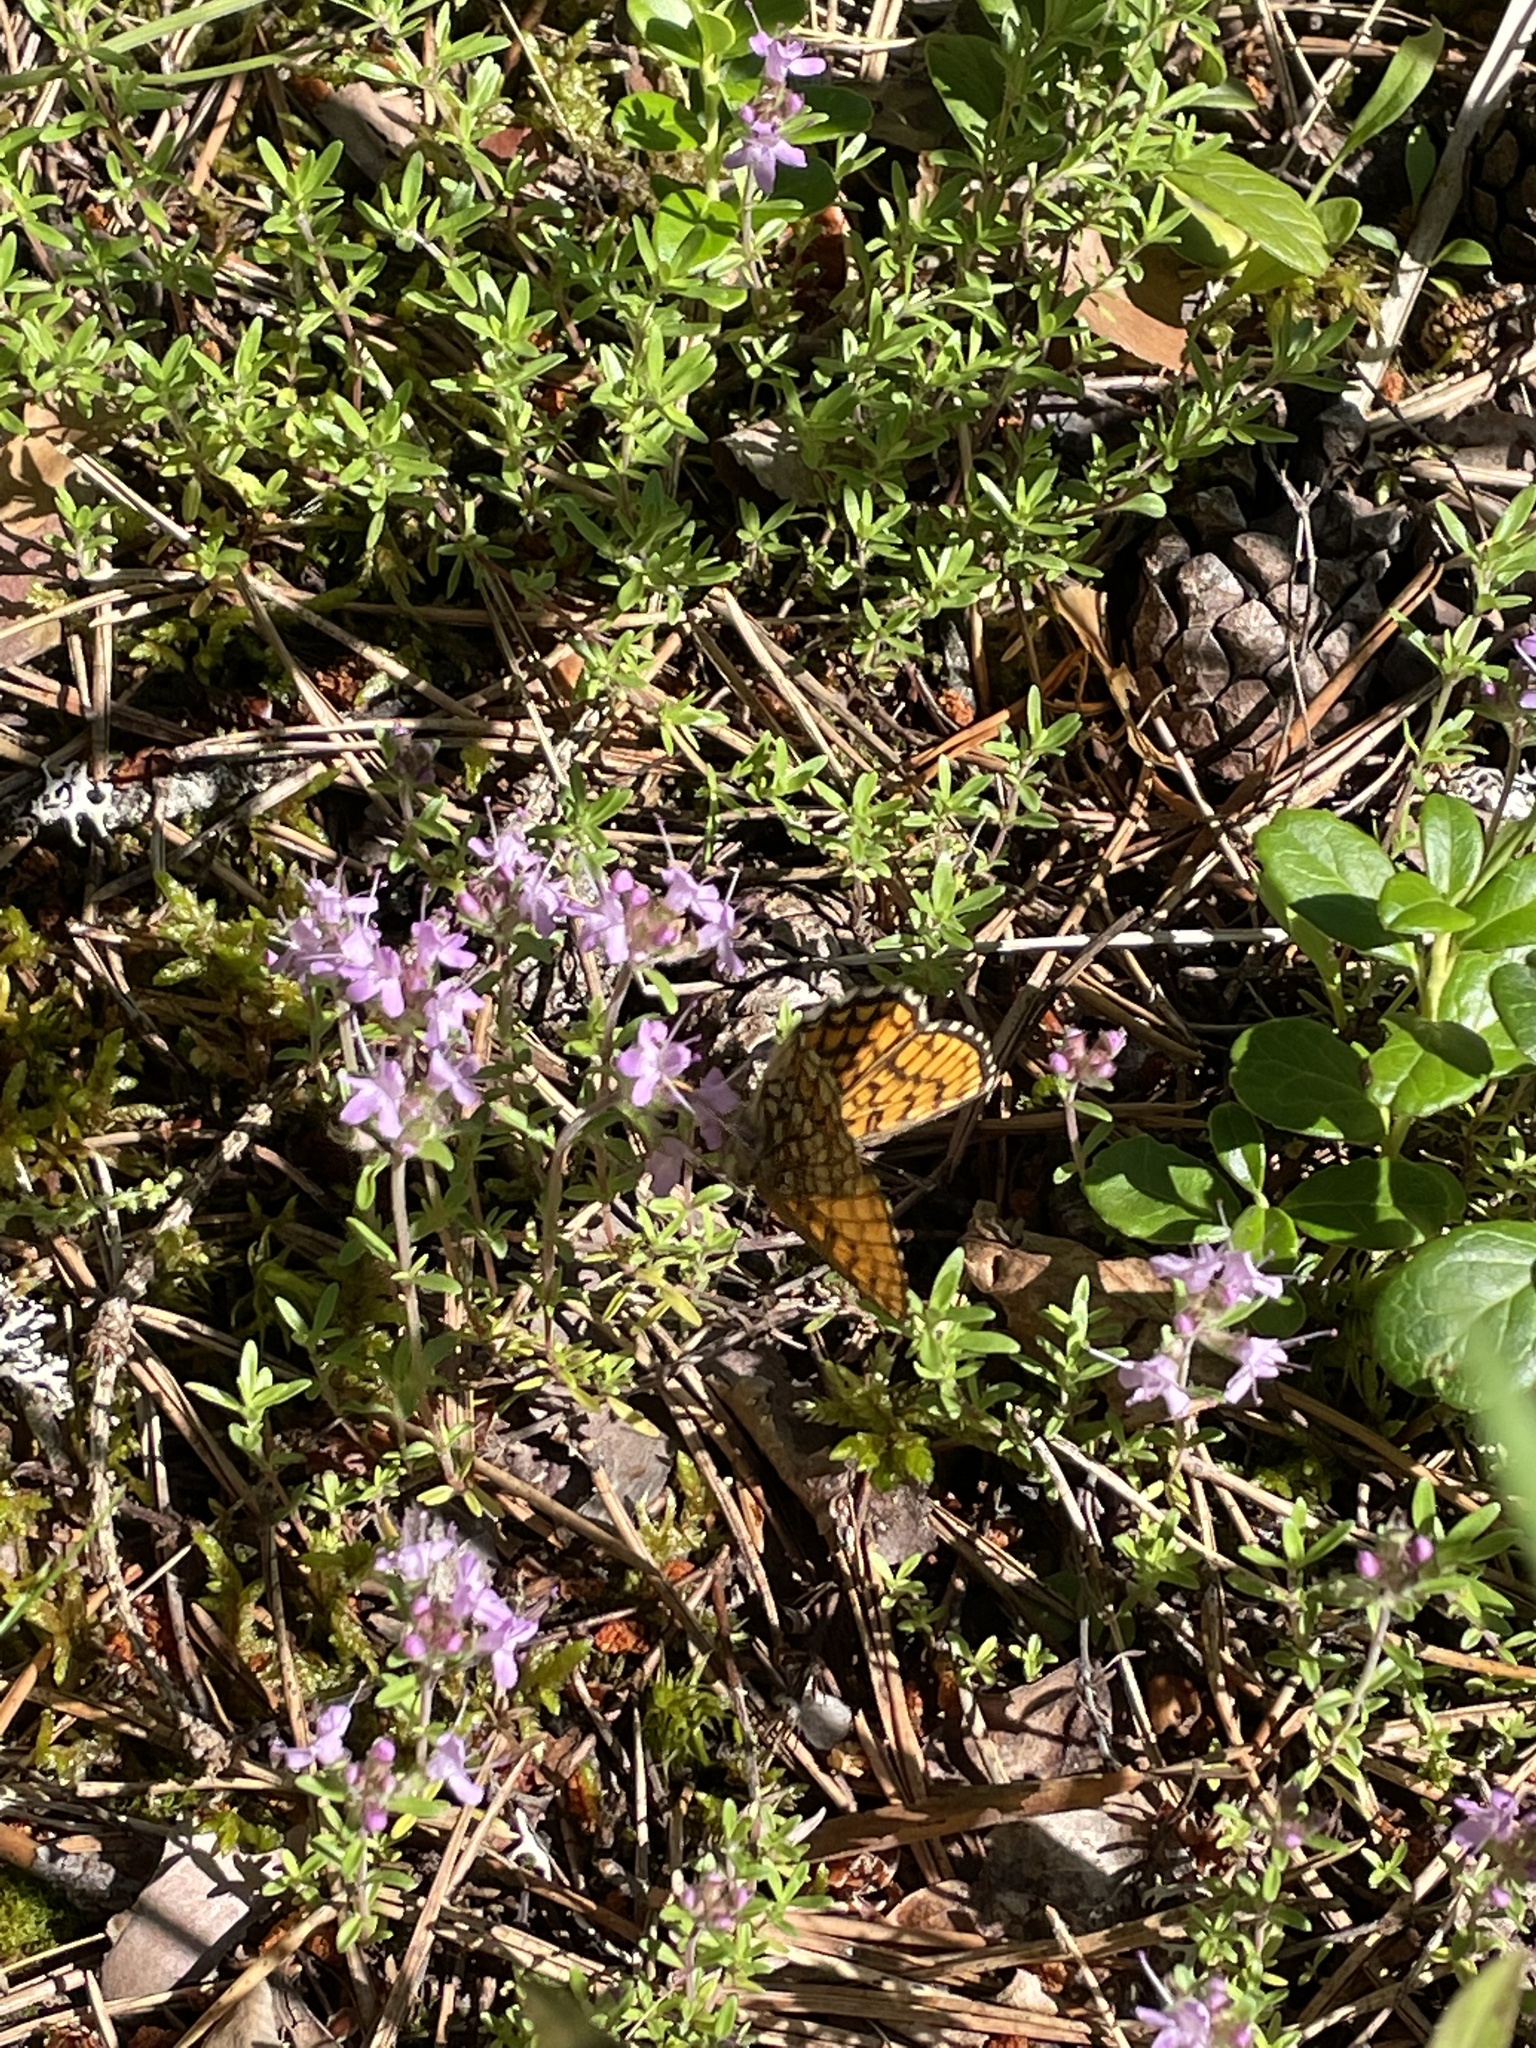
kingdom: Animalia
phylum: Arthropoda
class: Insecta
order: Lepidoptera
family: Nymphalidae
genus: Melitaea
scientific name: Melitaea athalia
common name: Heath fritillary
